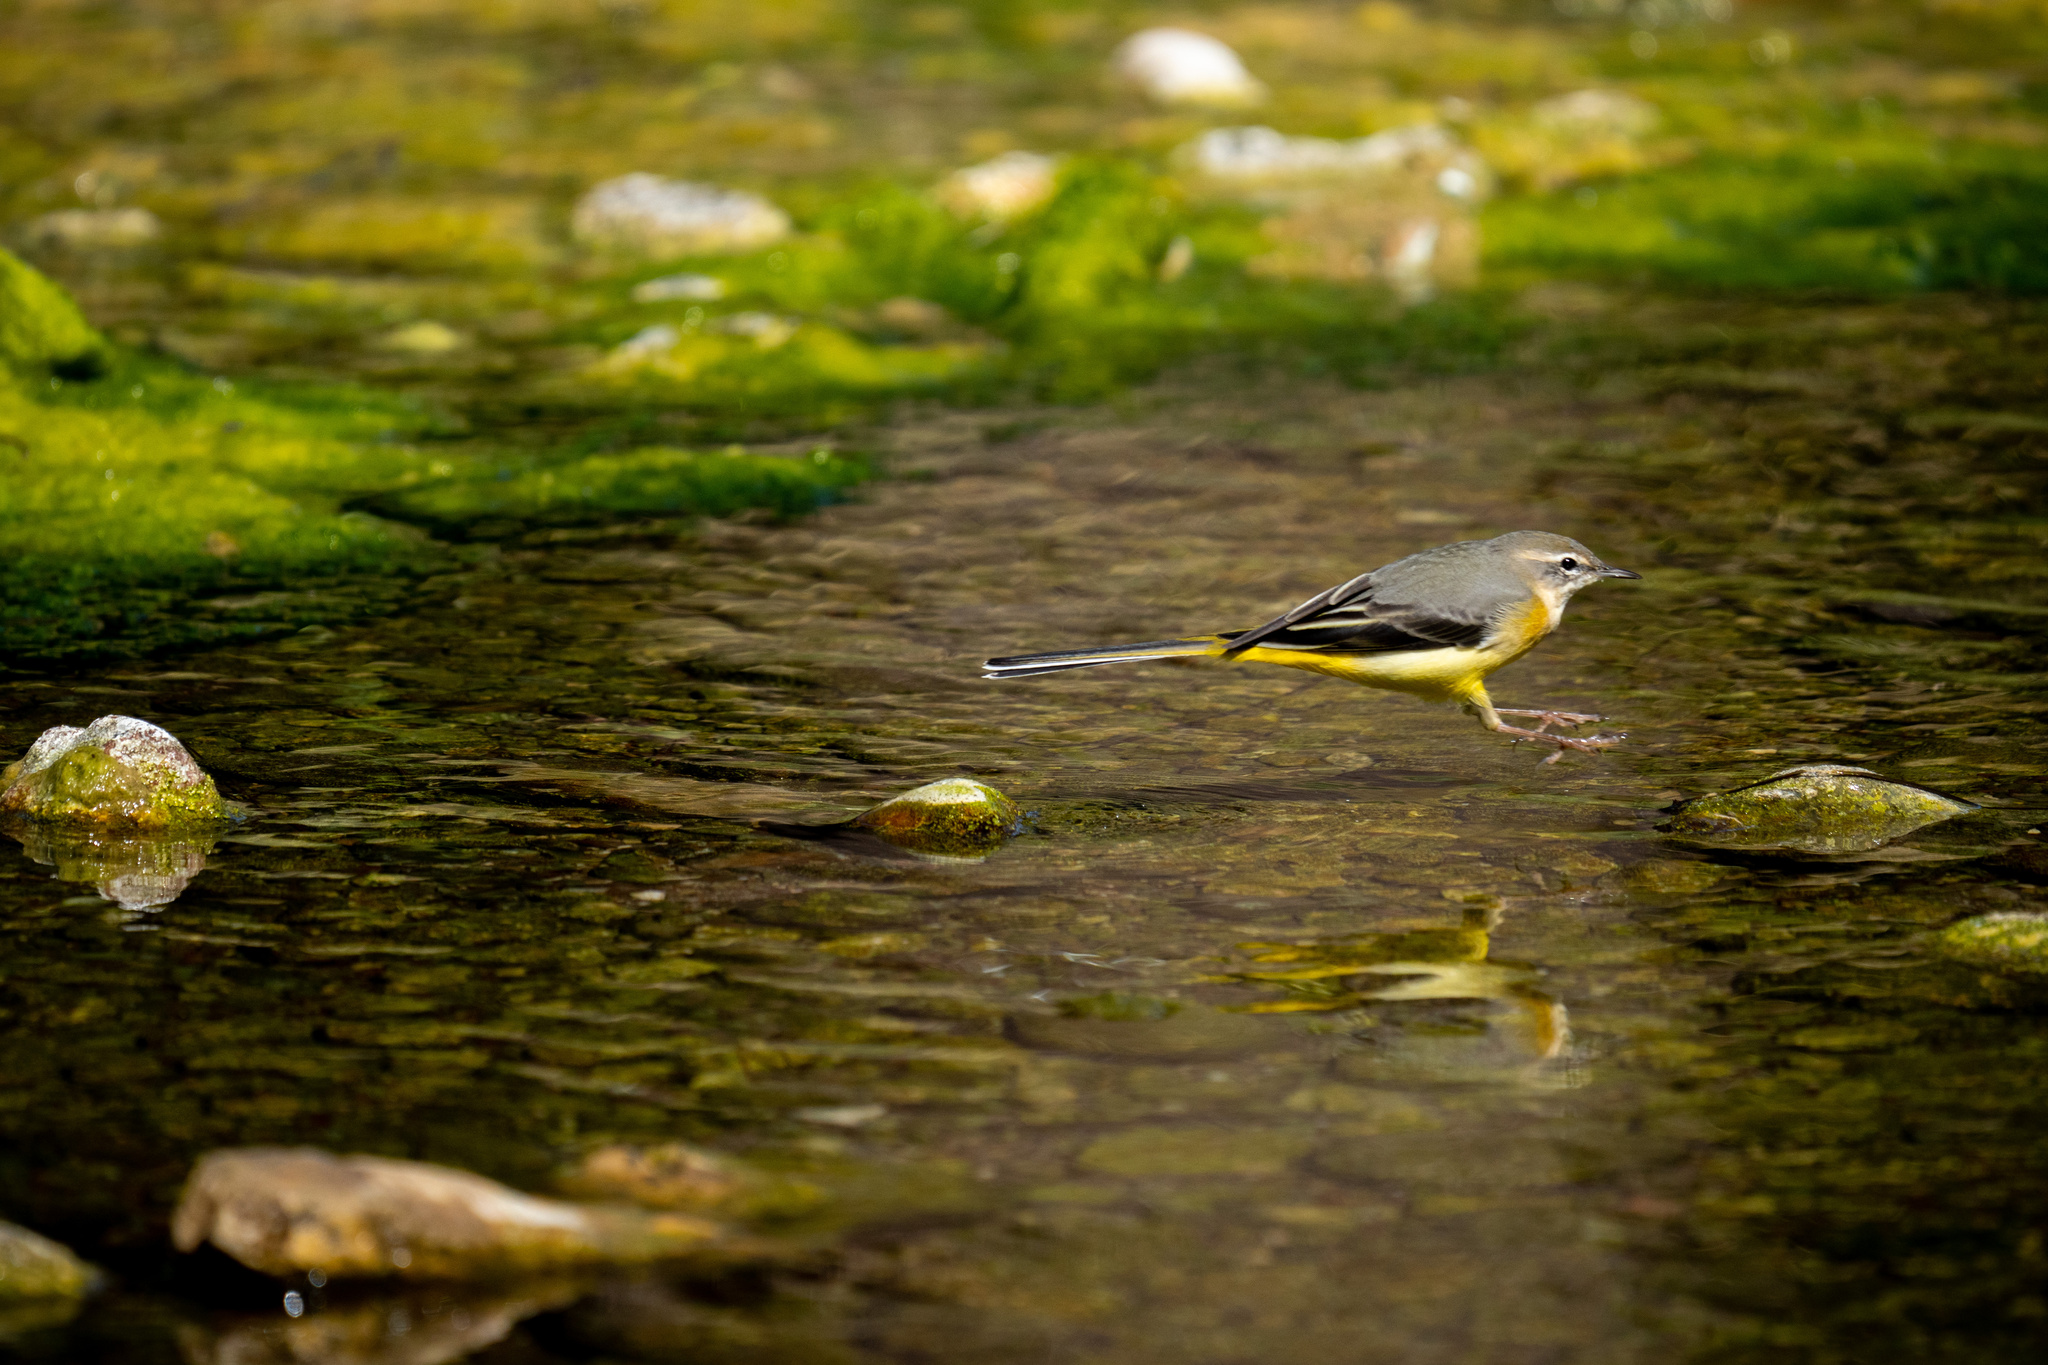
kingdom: Animalia
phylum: Chordata
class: Aves
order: Passeriformes
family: Motacillidae
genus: Motacilla
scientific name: Motacilla cinerea
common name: Grey wagtail
